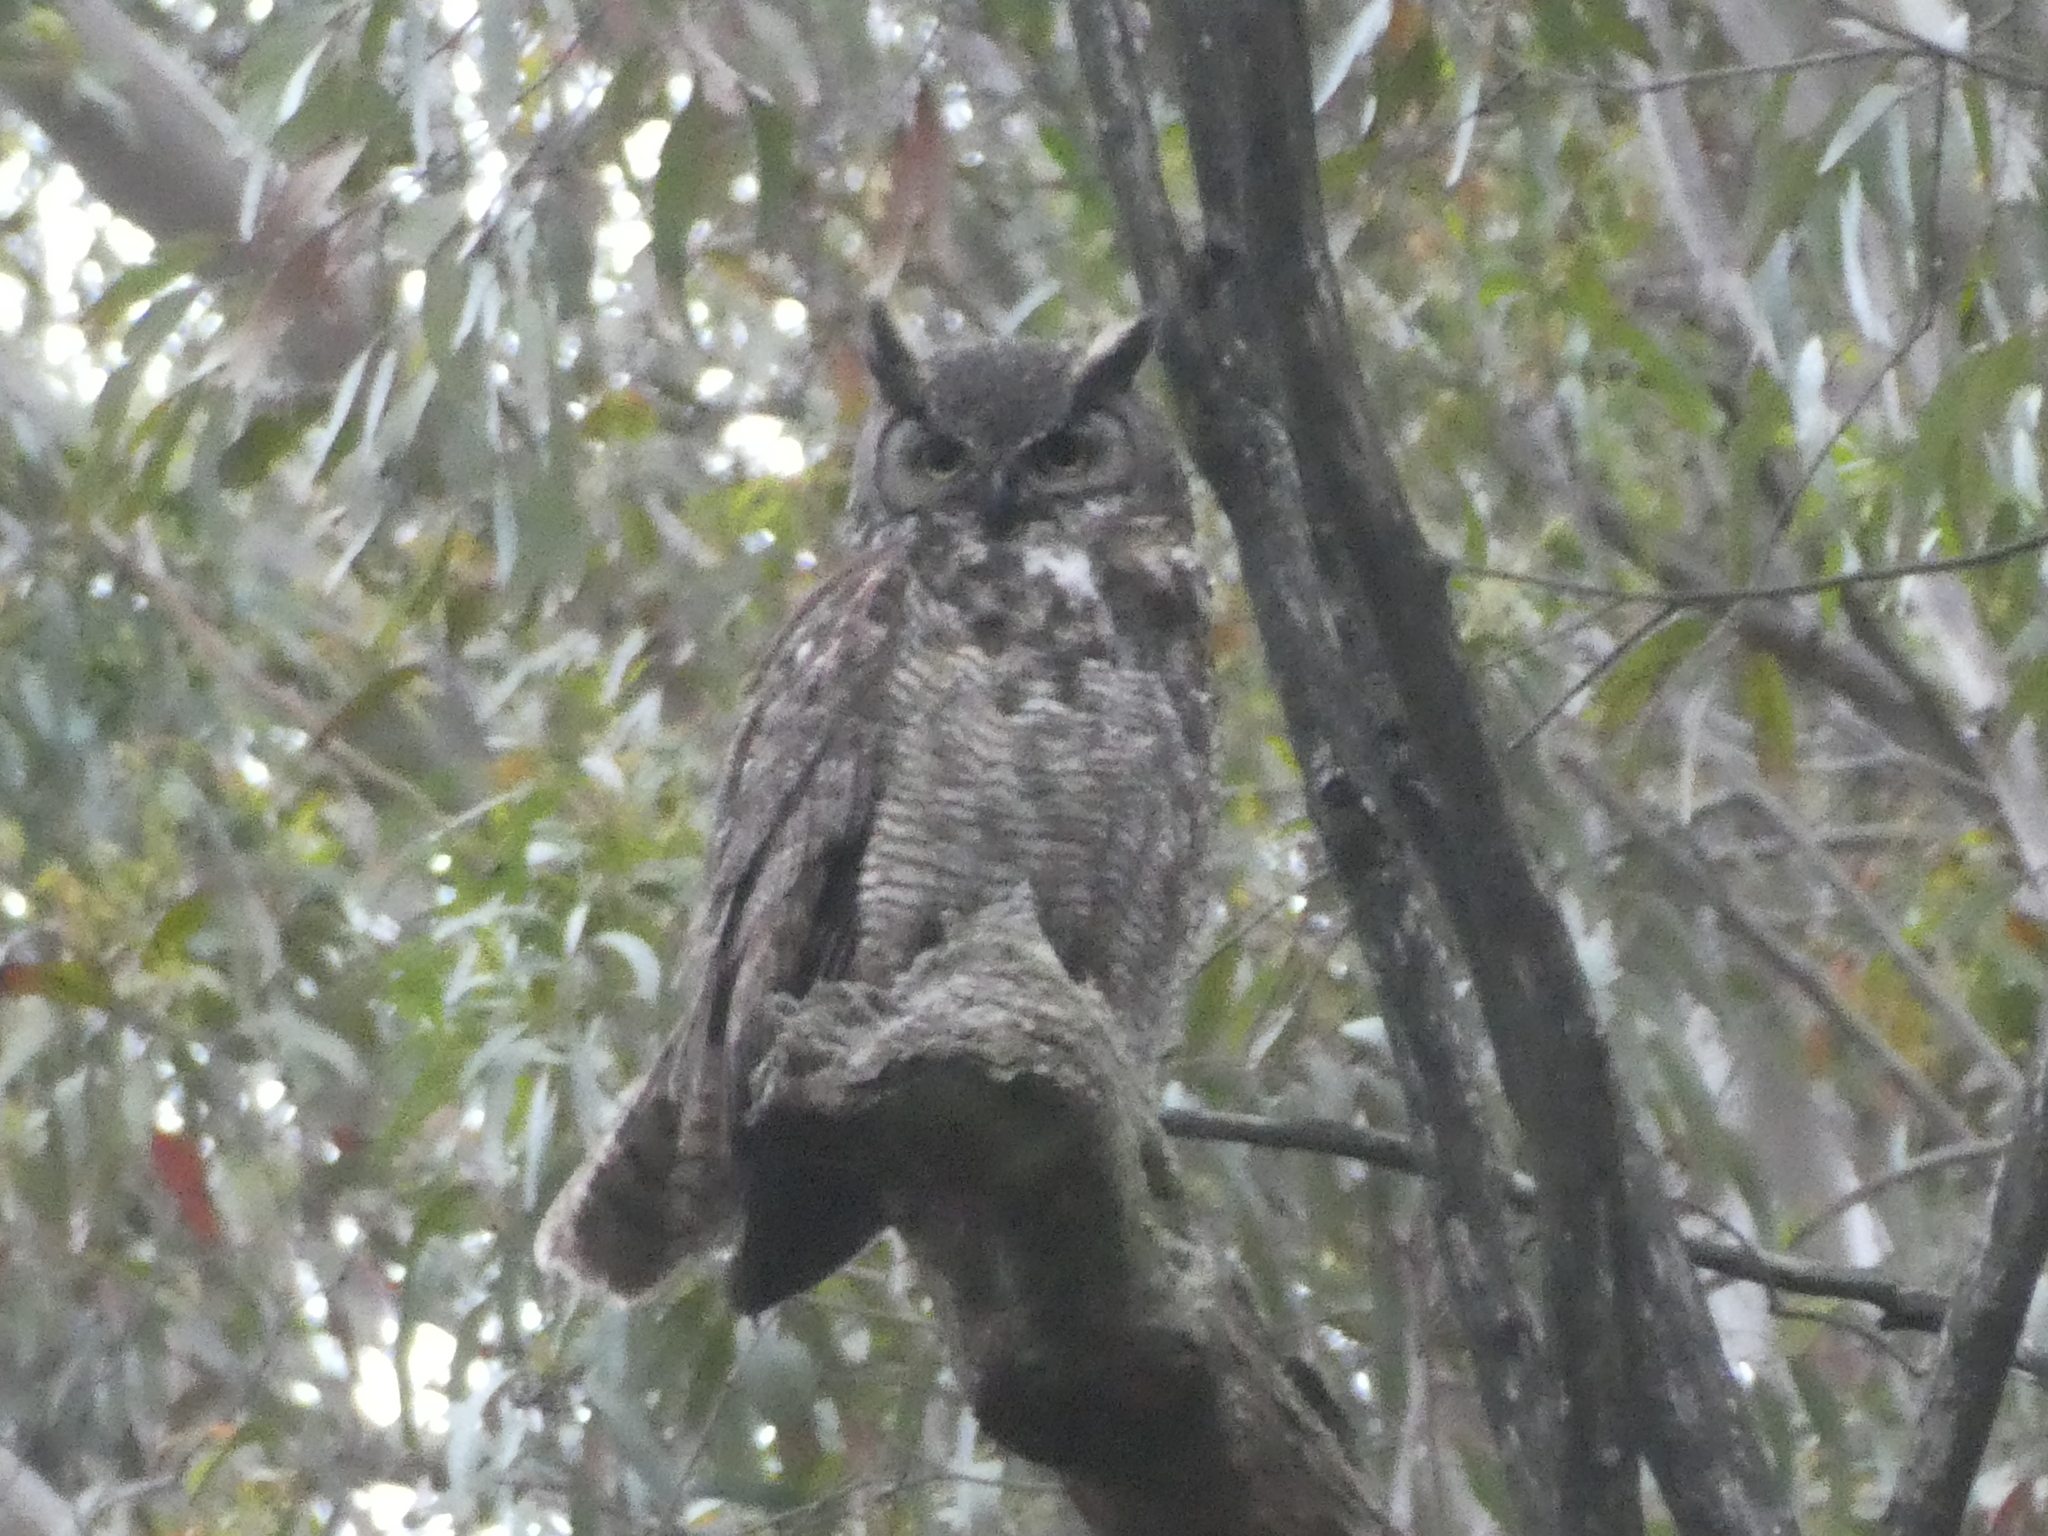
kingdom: Animalia
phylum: Chordata
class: Aves
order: Strigiformes
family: Strigidae
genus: Bubo
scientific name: Bubo virginianus
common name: Great horned owl
